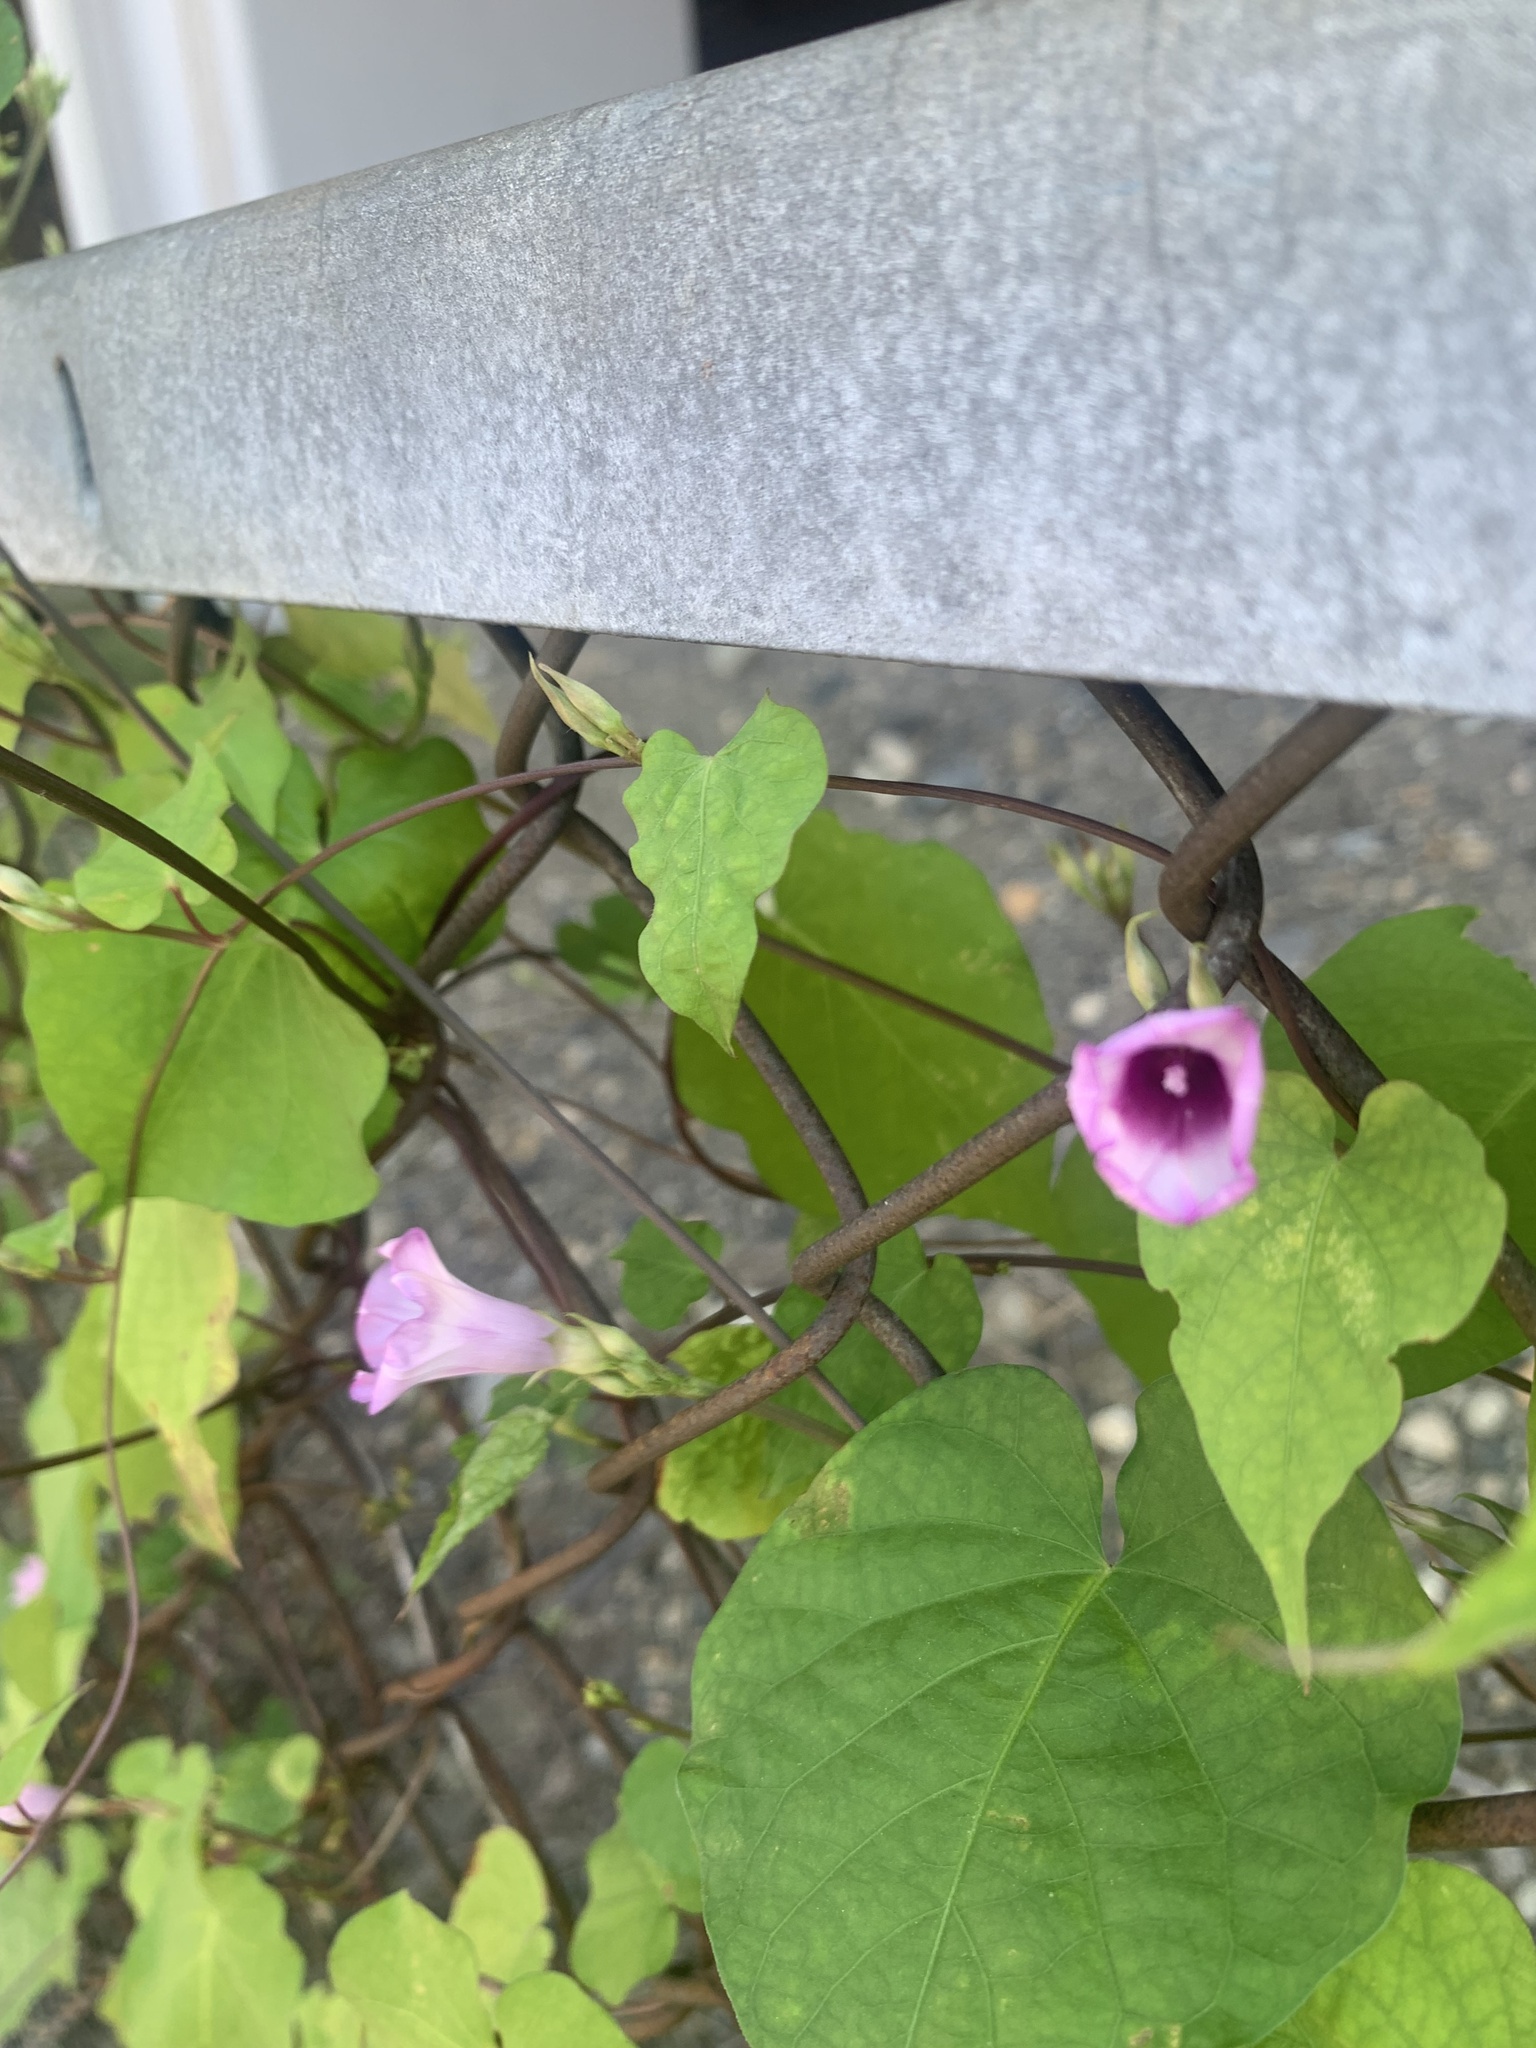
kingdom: Plantae
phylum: Tracheophyta
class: Magnoliopsida
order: Solanales
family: Convolvulaceae
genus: Ipomoea
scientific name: Ipomoea triloba
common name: Little-bell
